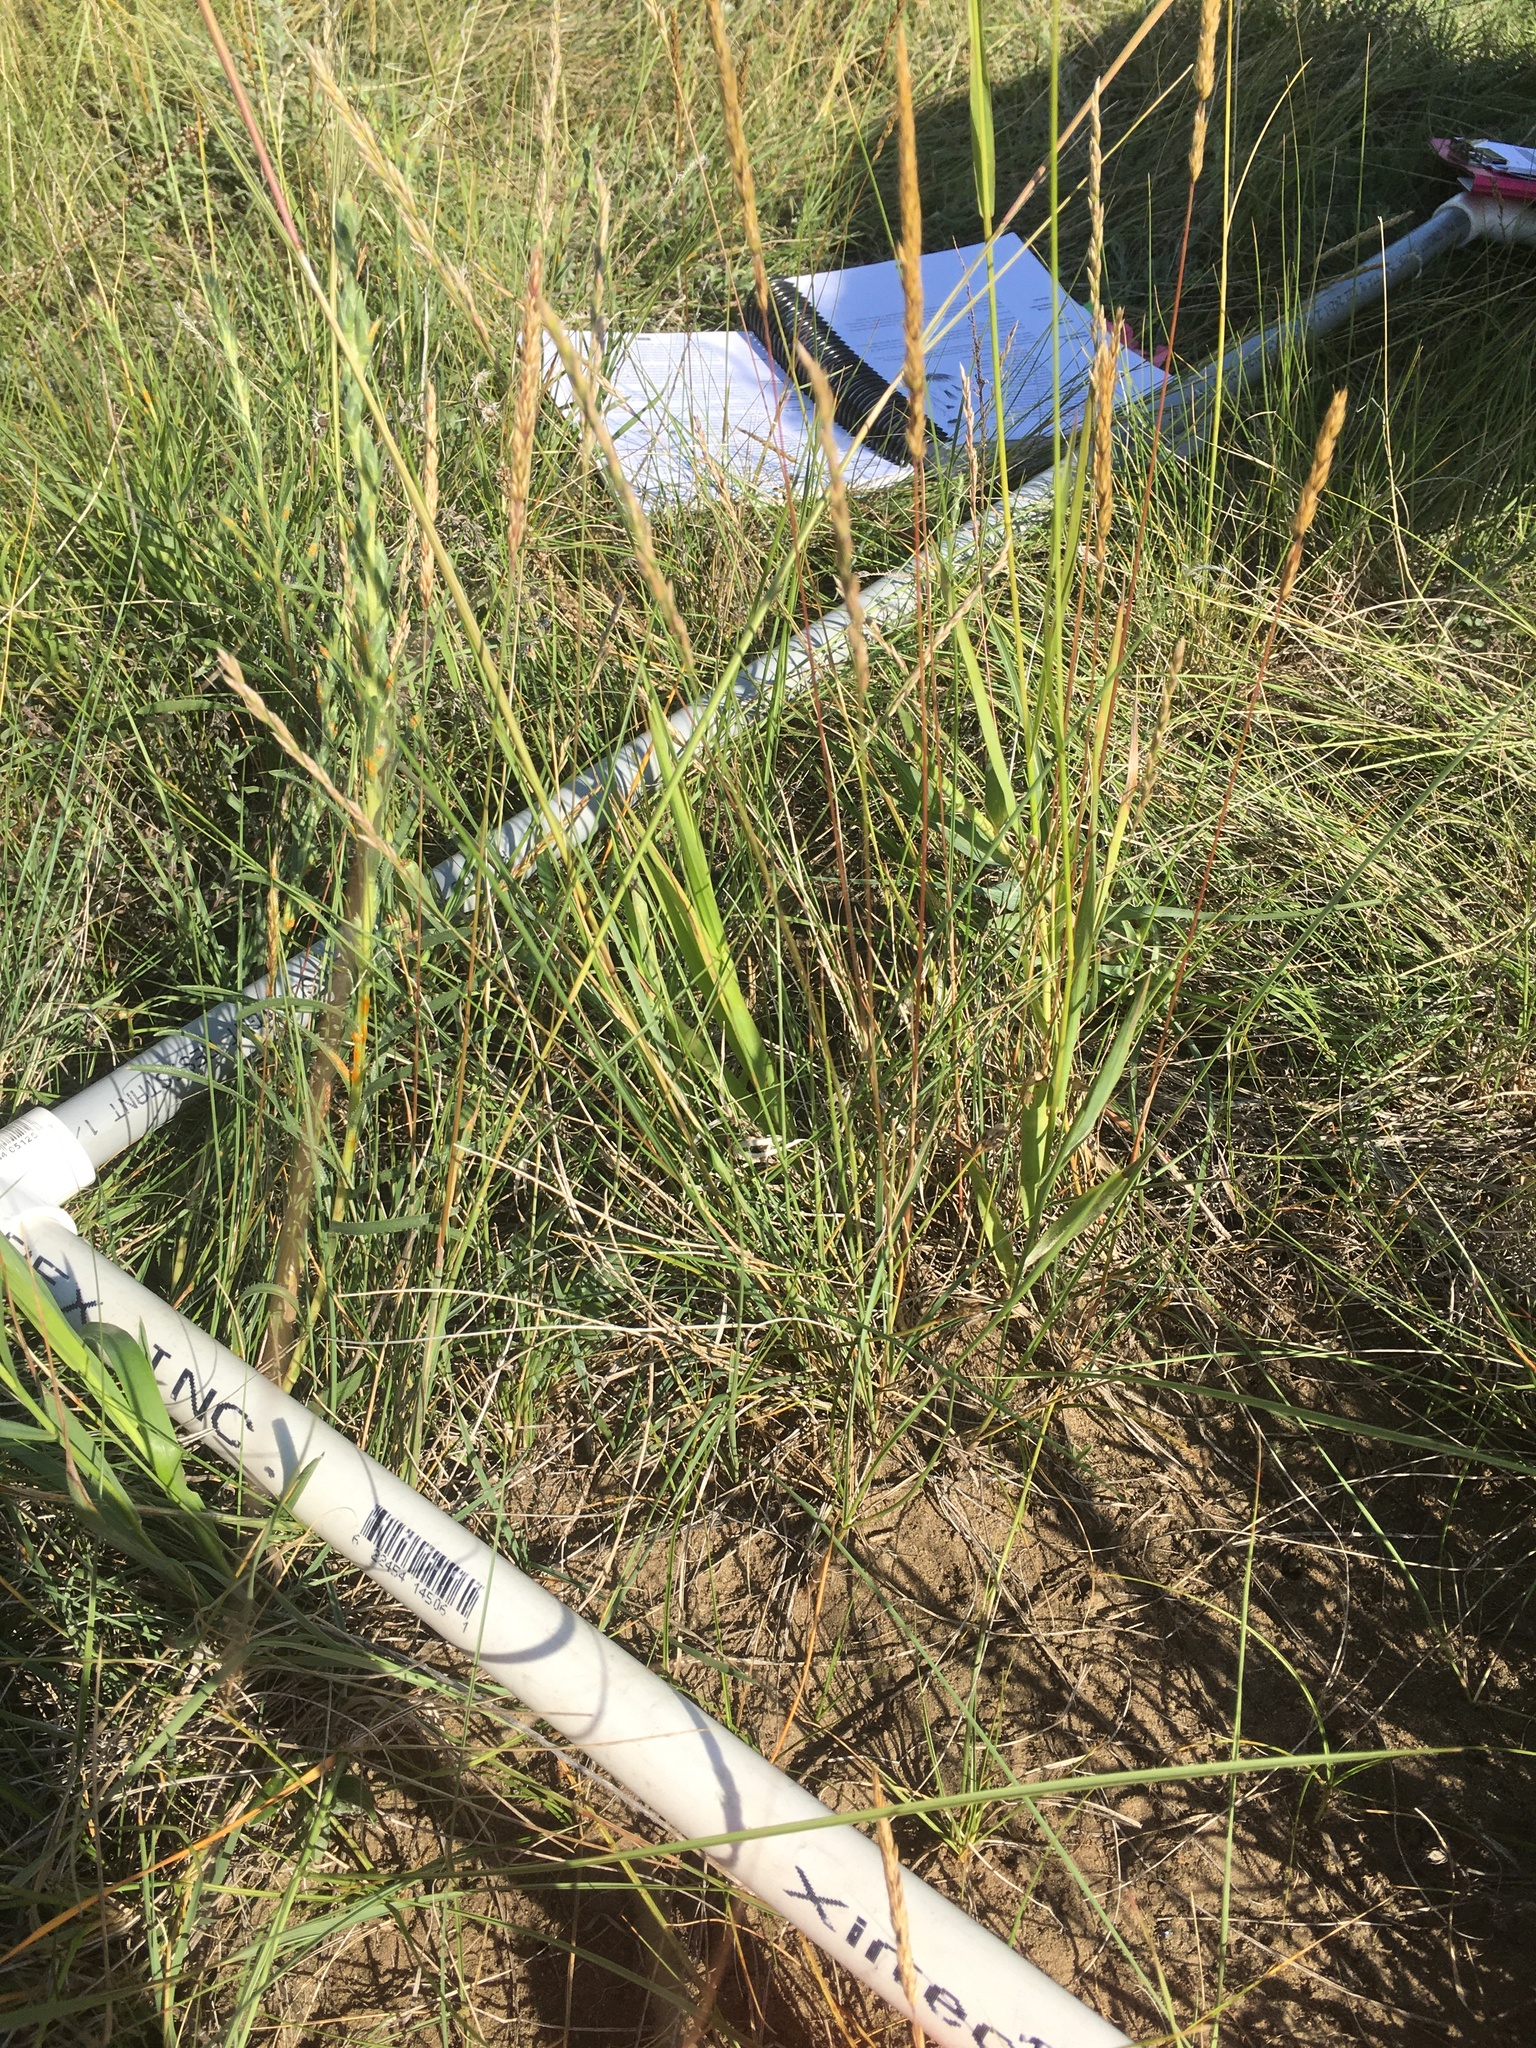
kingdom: Plantae
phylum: Tracheophyta
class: Liliopsida
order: Poales
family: Poaceae
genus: Koeleria
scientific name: Koeleria macrantha
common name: Crested hair-grass
